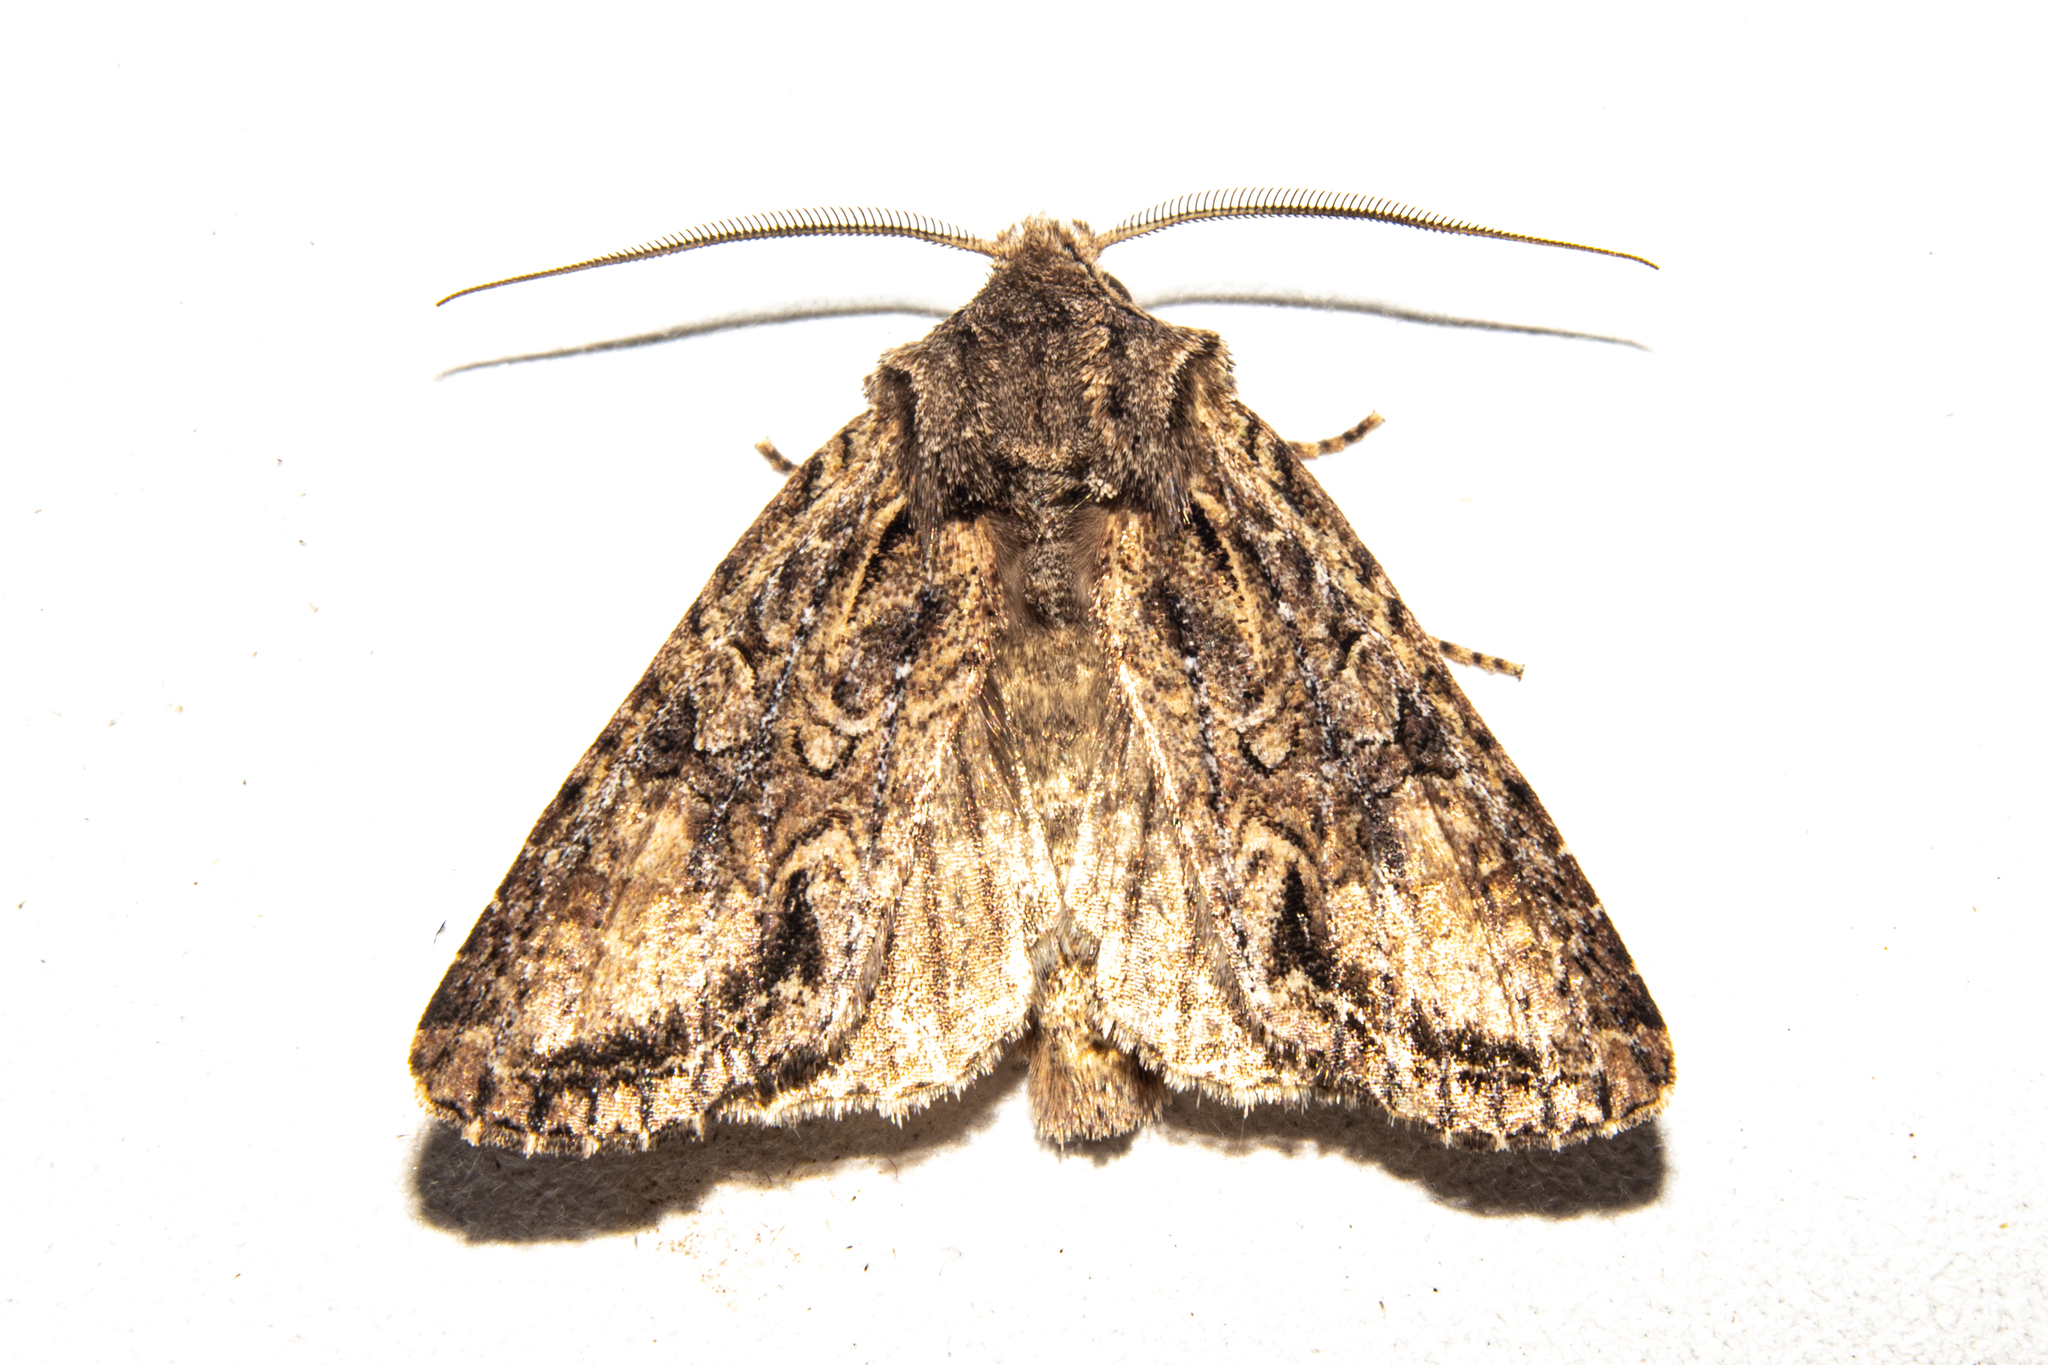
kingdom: Animalia
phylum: Arthropoda
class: Insecta
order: Lepidoptera
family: Noctuidae
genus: Ichneutica
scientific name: Ichneutica mutans
